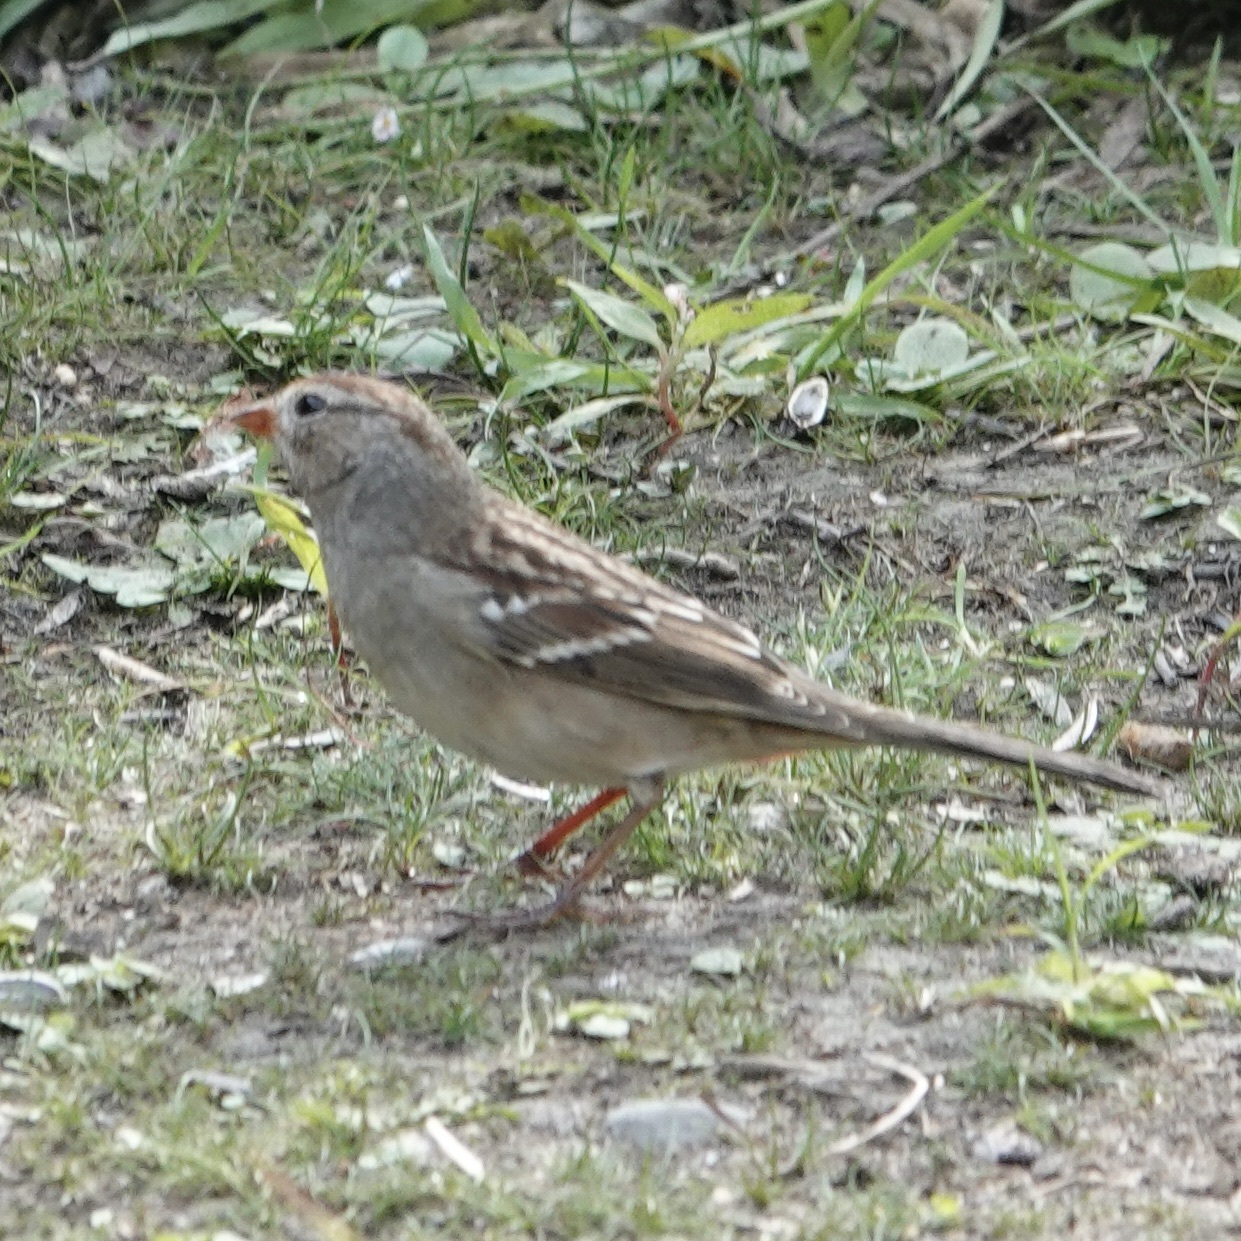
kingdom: Animalia
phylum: Chordata
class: Aves
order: Passeriformes
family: Passerellidae
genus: Zonotrichia
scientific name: Zonotrichia leucophrys
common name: White-crowned sparrow
